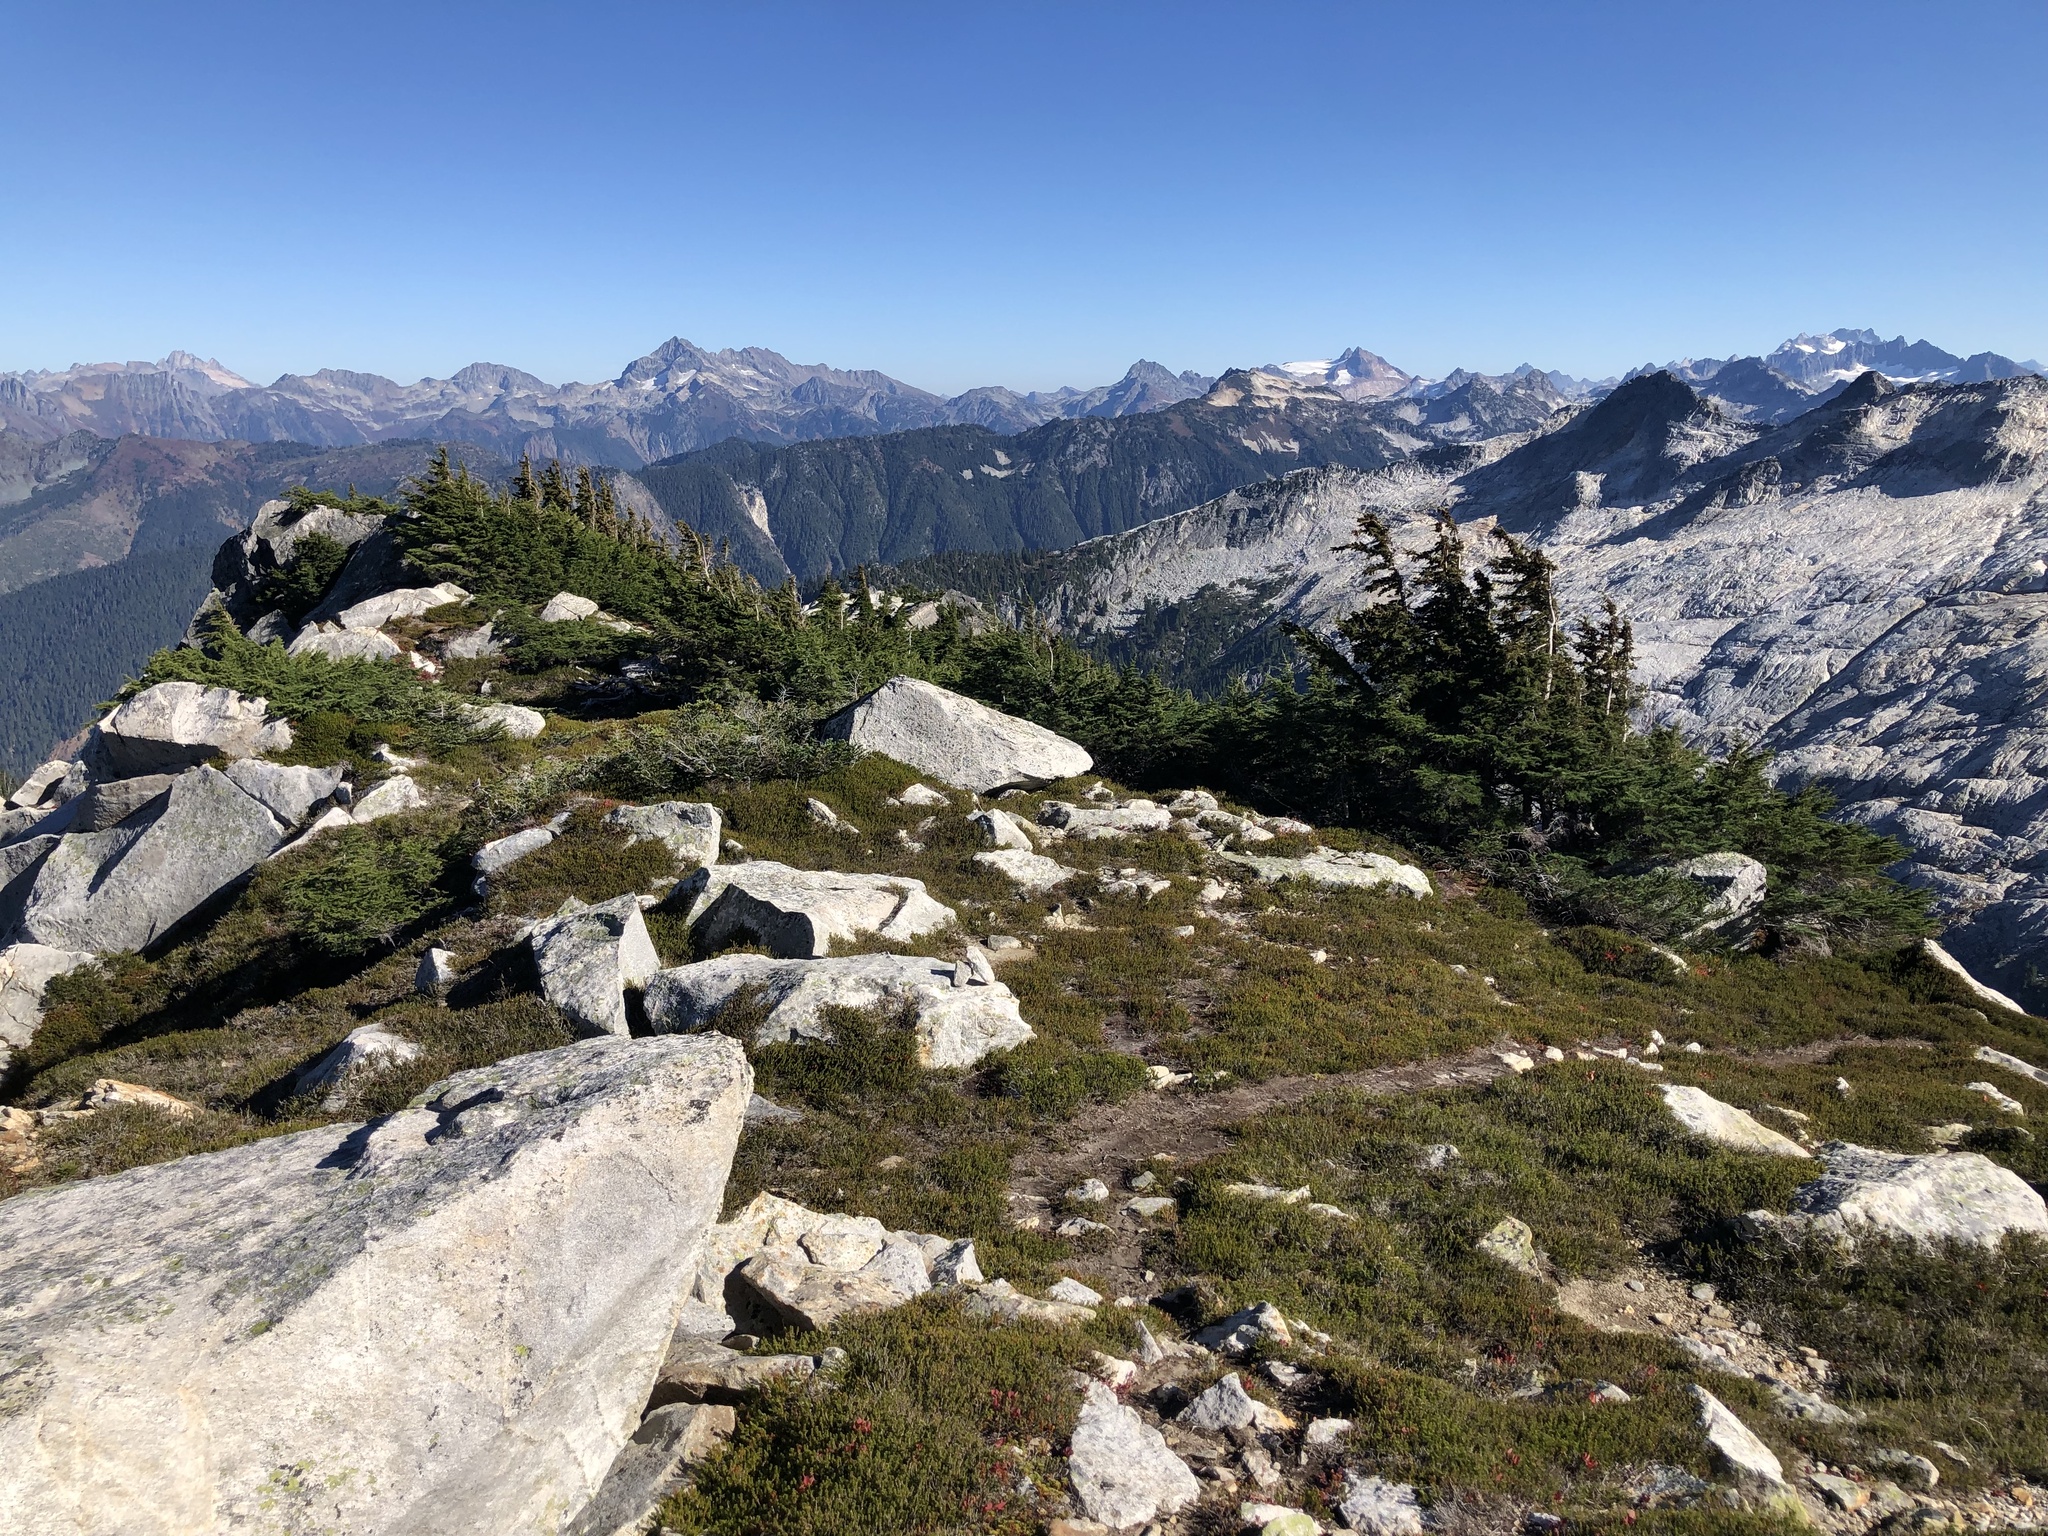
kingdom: Plantae
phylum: Tracheophyta
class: Pinopsida
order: Pinales
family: Pinaceae
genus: Tsuga
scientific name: Tsuga mertensiana
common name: Mountain hemlock
